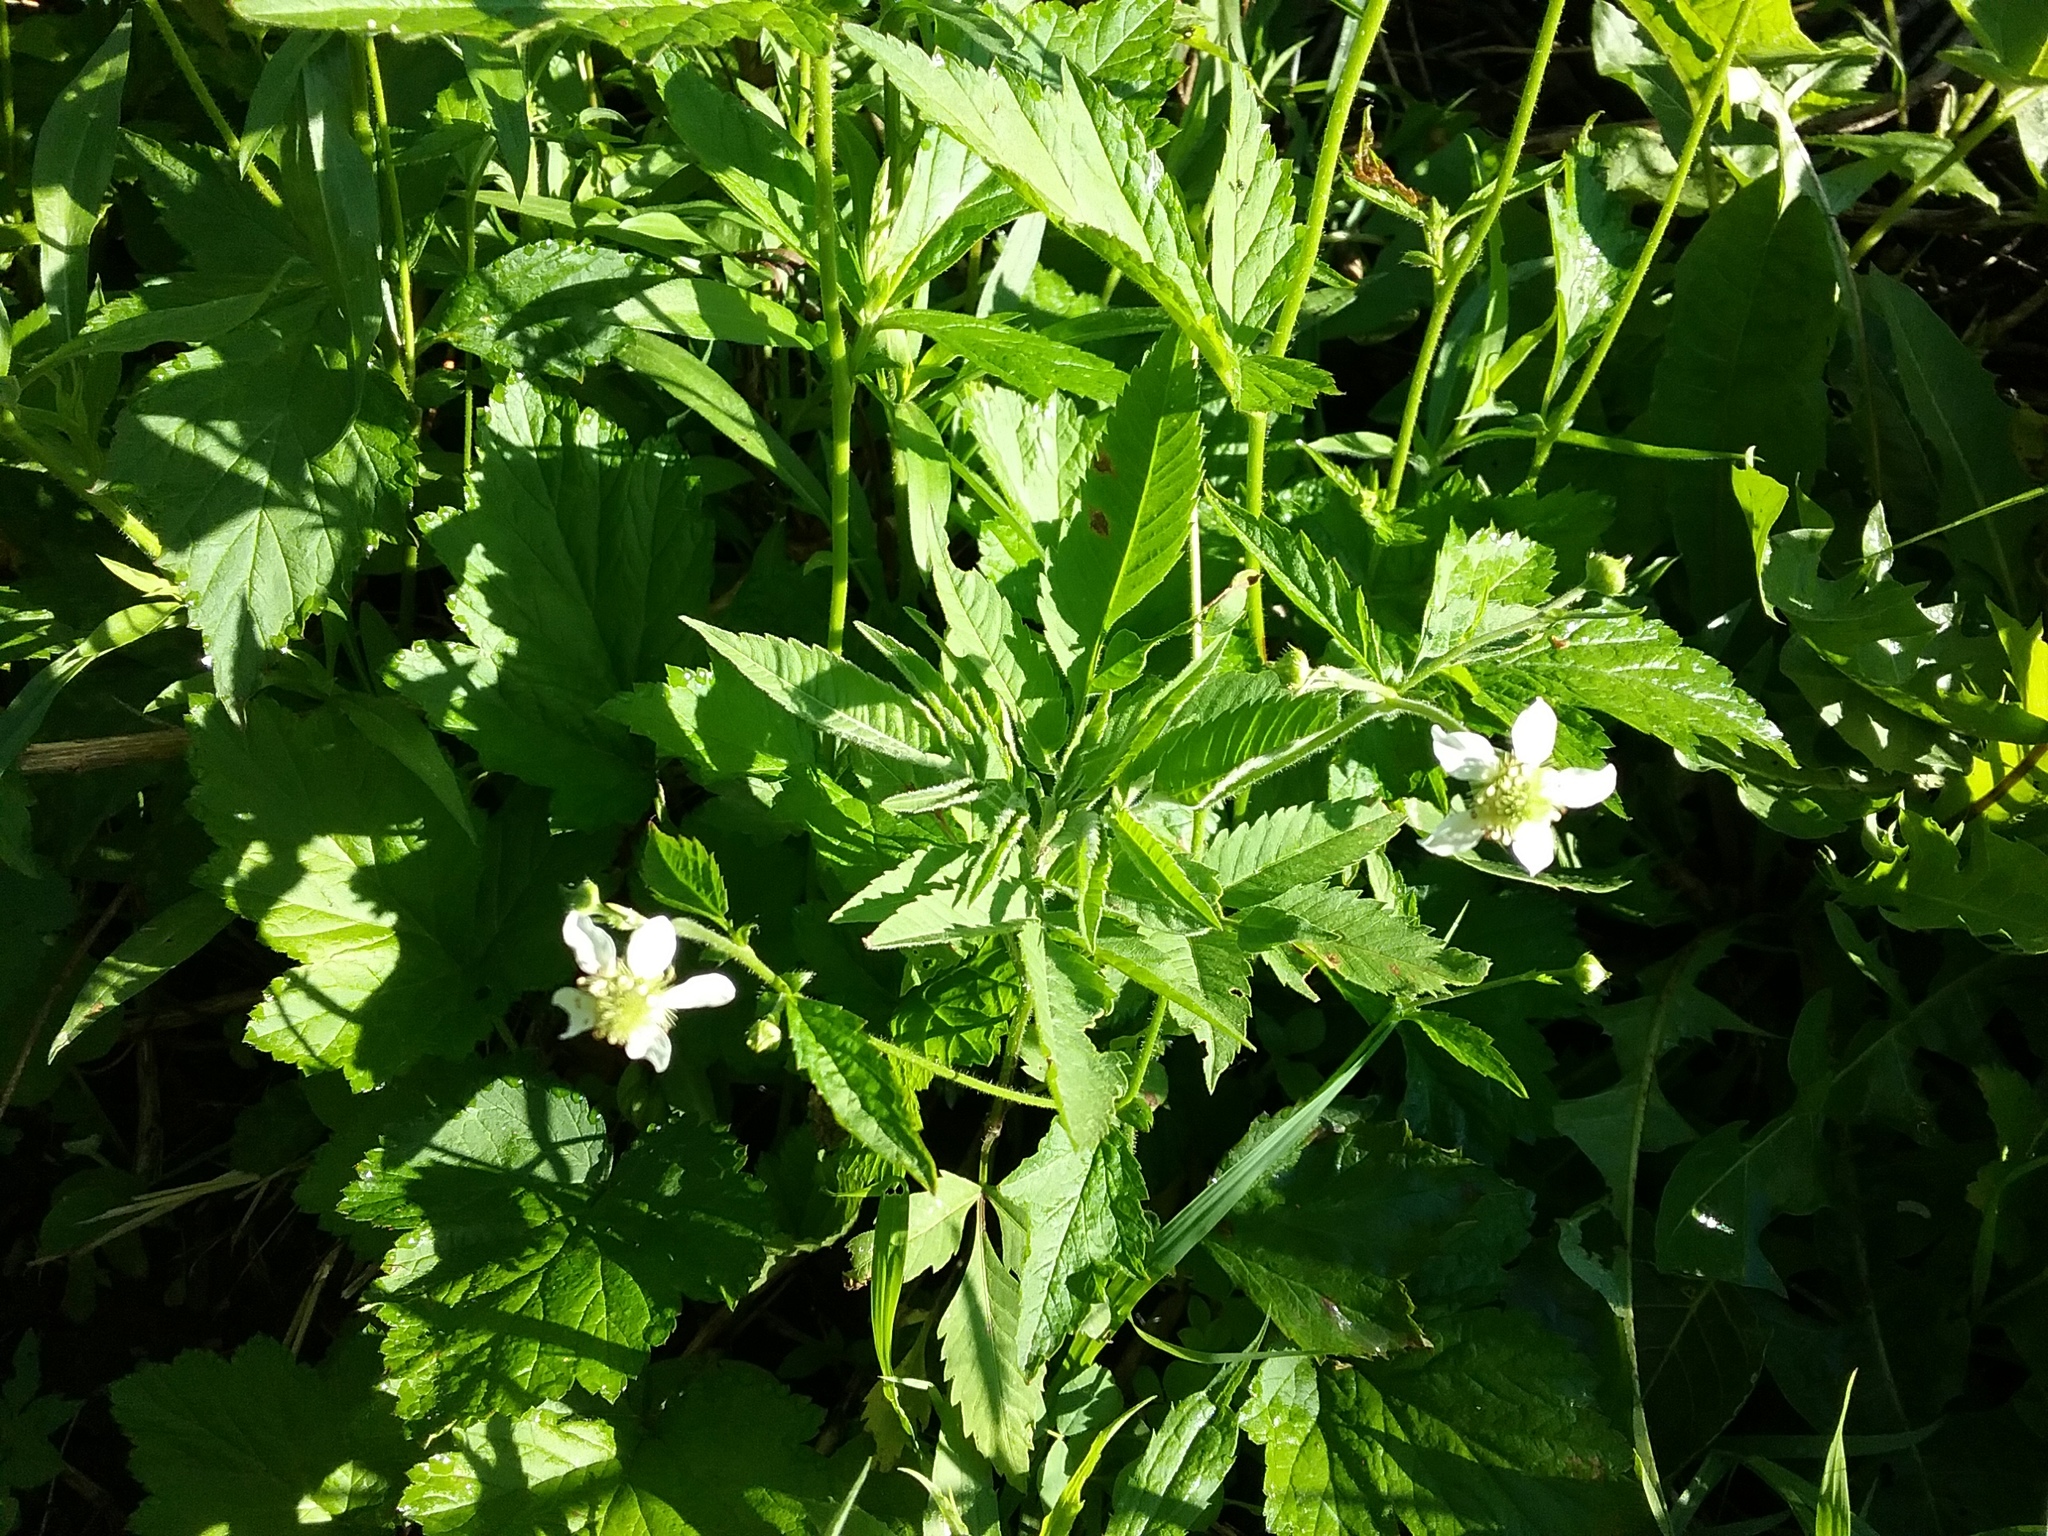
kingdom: Plantae
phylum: Tracheophyta
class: Magnoliopsida
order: Rosales
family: Rosaceae
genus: Geum
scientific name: Geum canadense
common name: White avens
